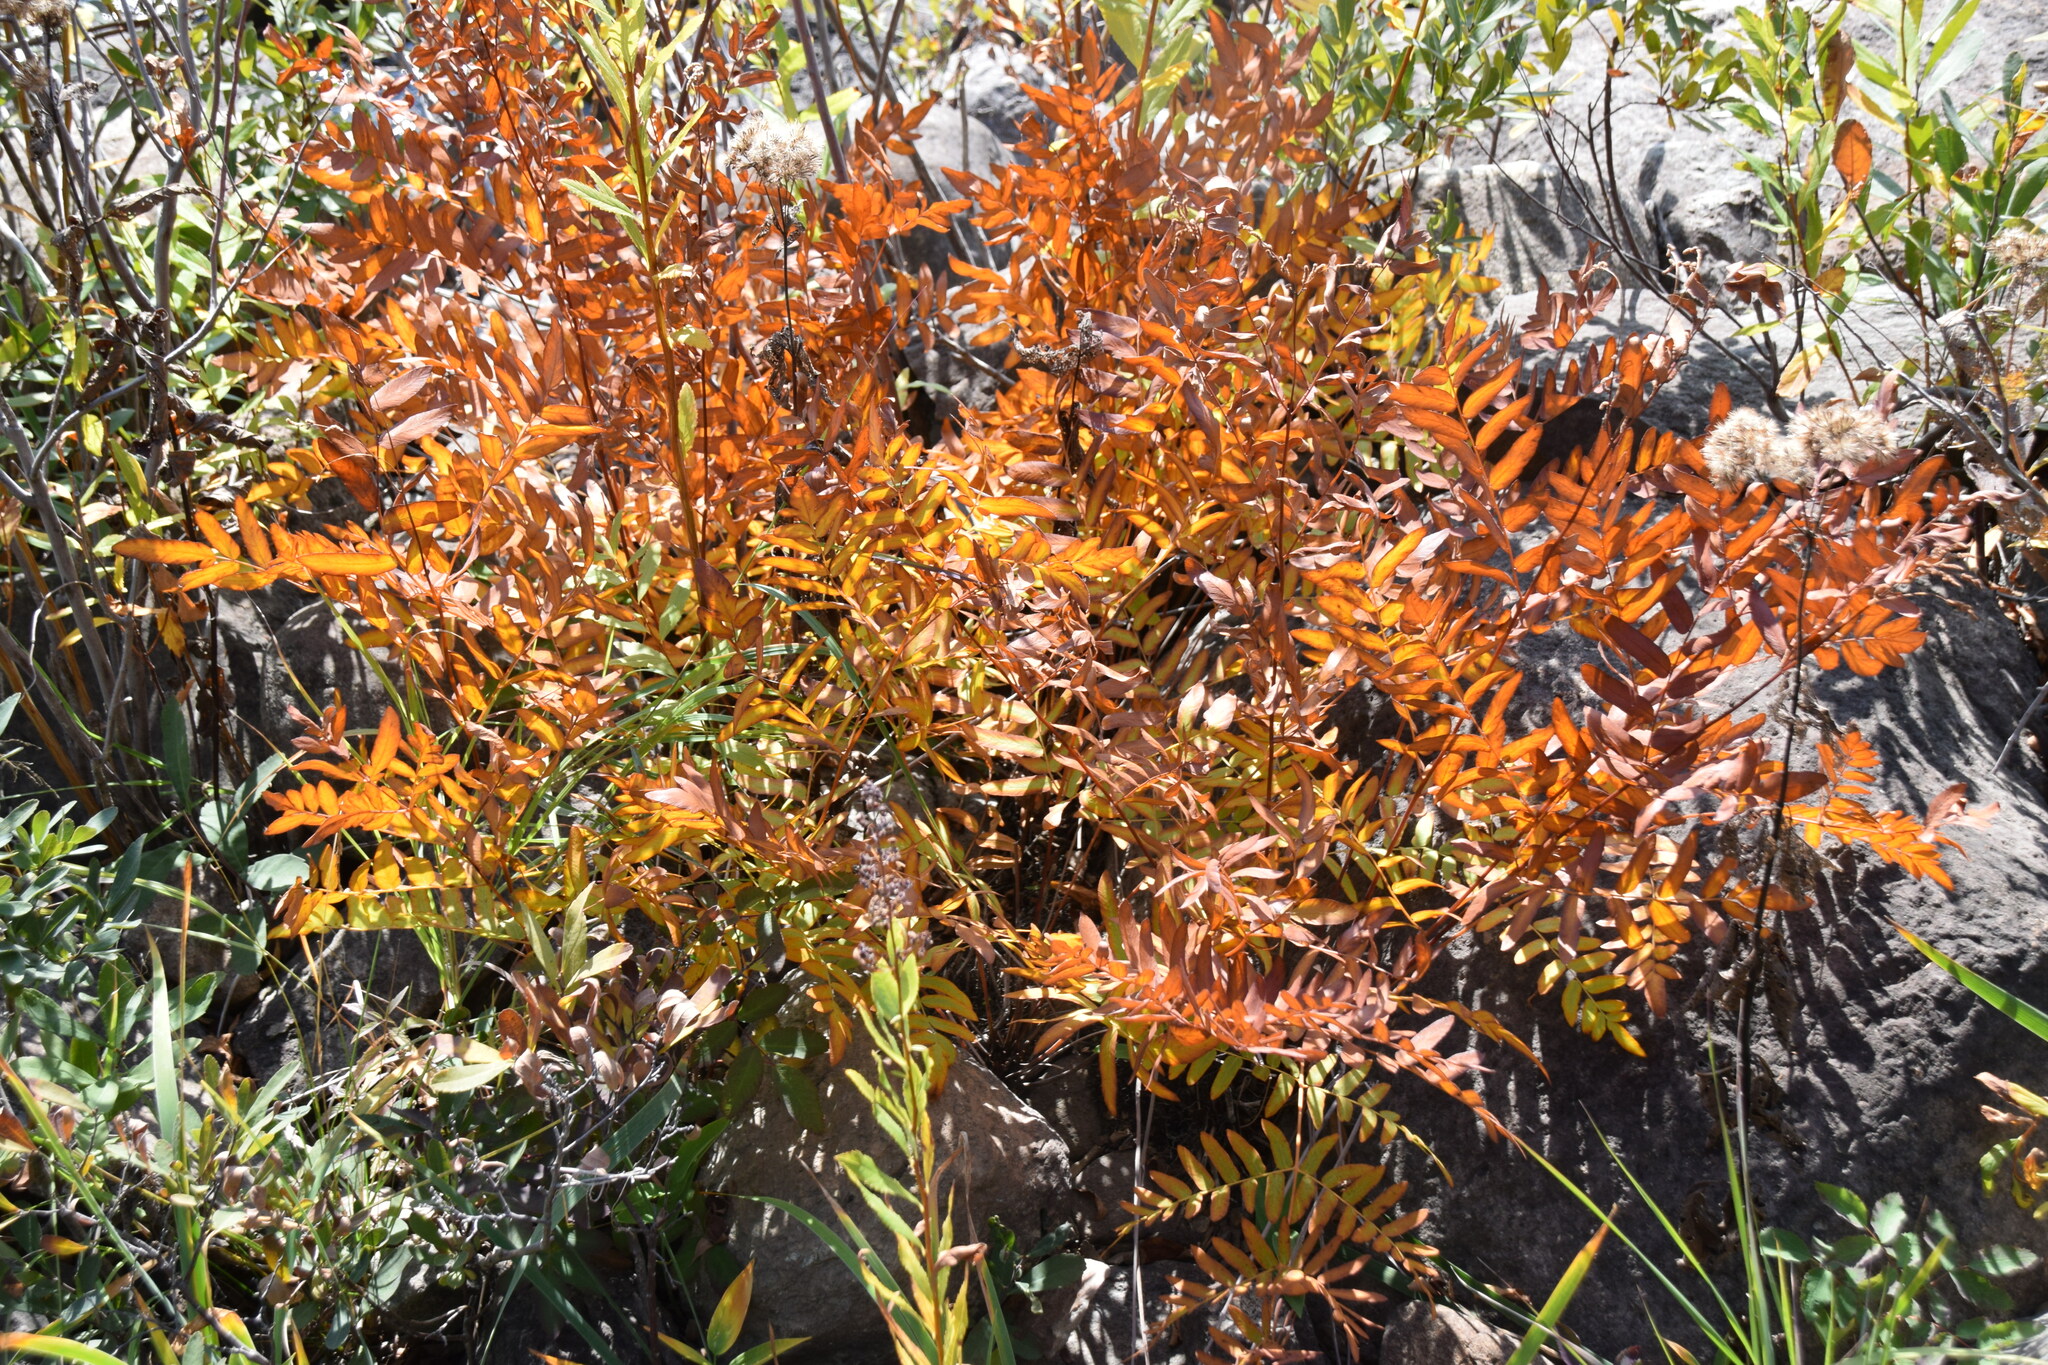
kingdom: Plantae
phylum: Tracheophyta
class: Polypodiopsida
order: Osmundales
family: Osmundaceae
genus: Osmunda
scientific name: Osmunda spectabilis
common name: American royal fern
